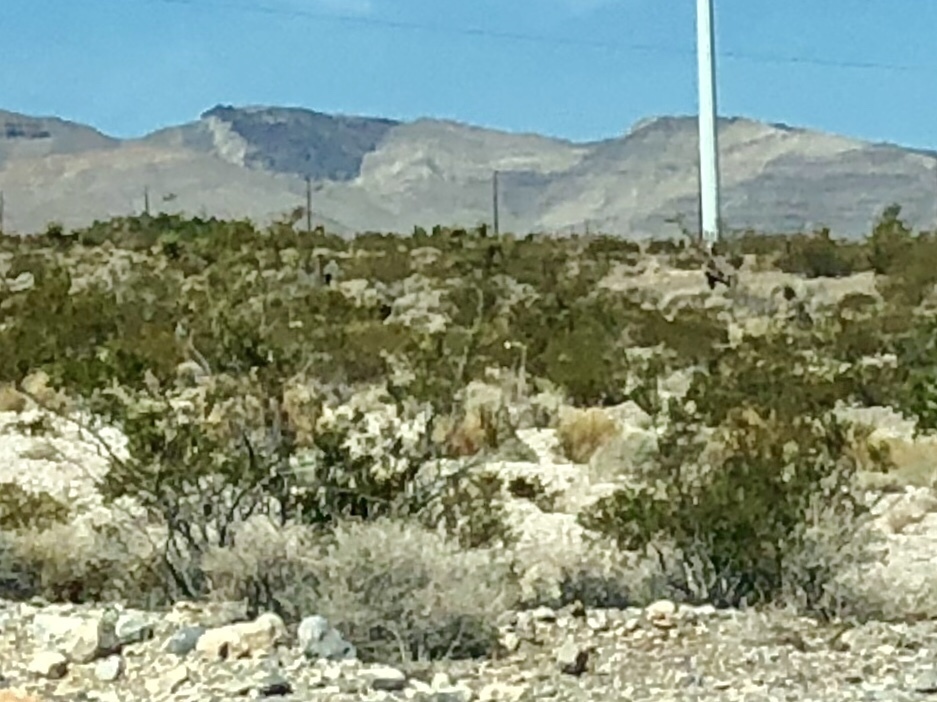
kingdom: Plantae
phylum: Tracheophyta
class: Magnoliopsida
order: Zygophyllales
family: Zygophyllaceae
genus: Larrea
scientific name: Larrea tridentata
